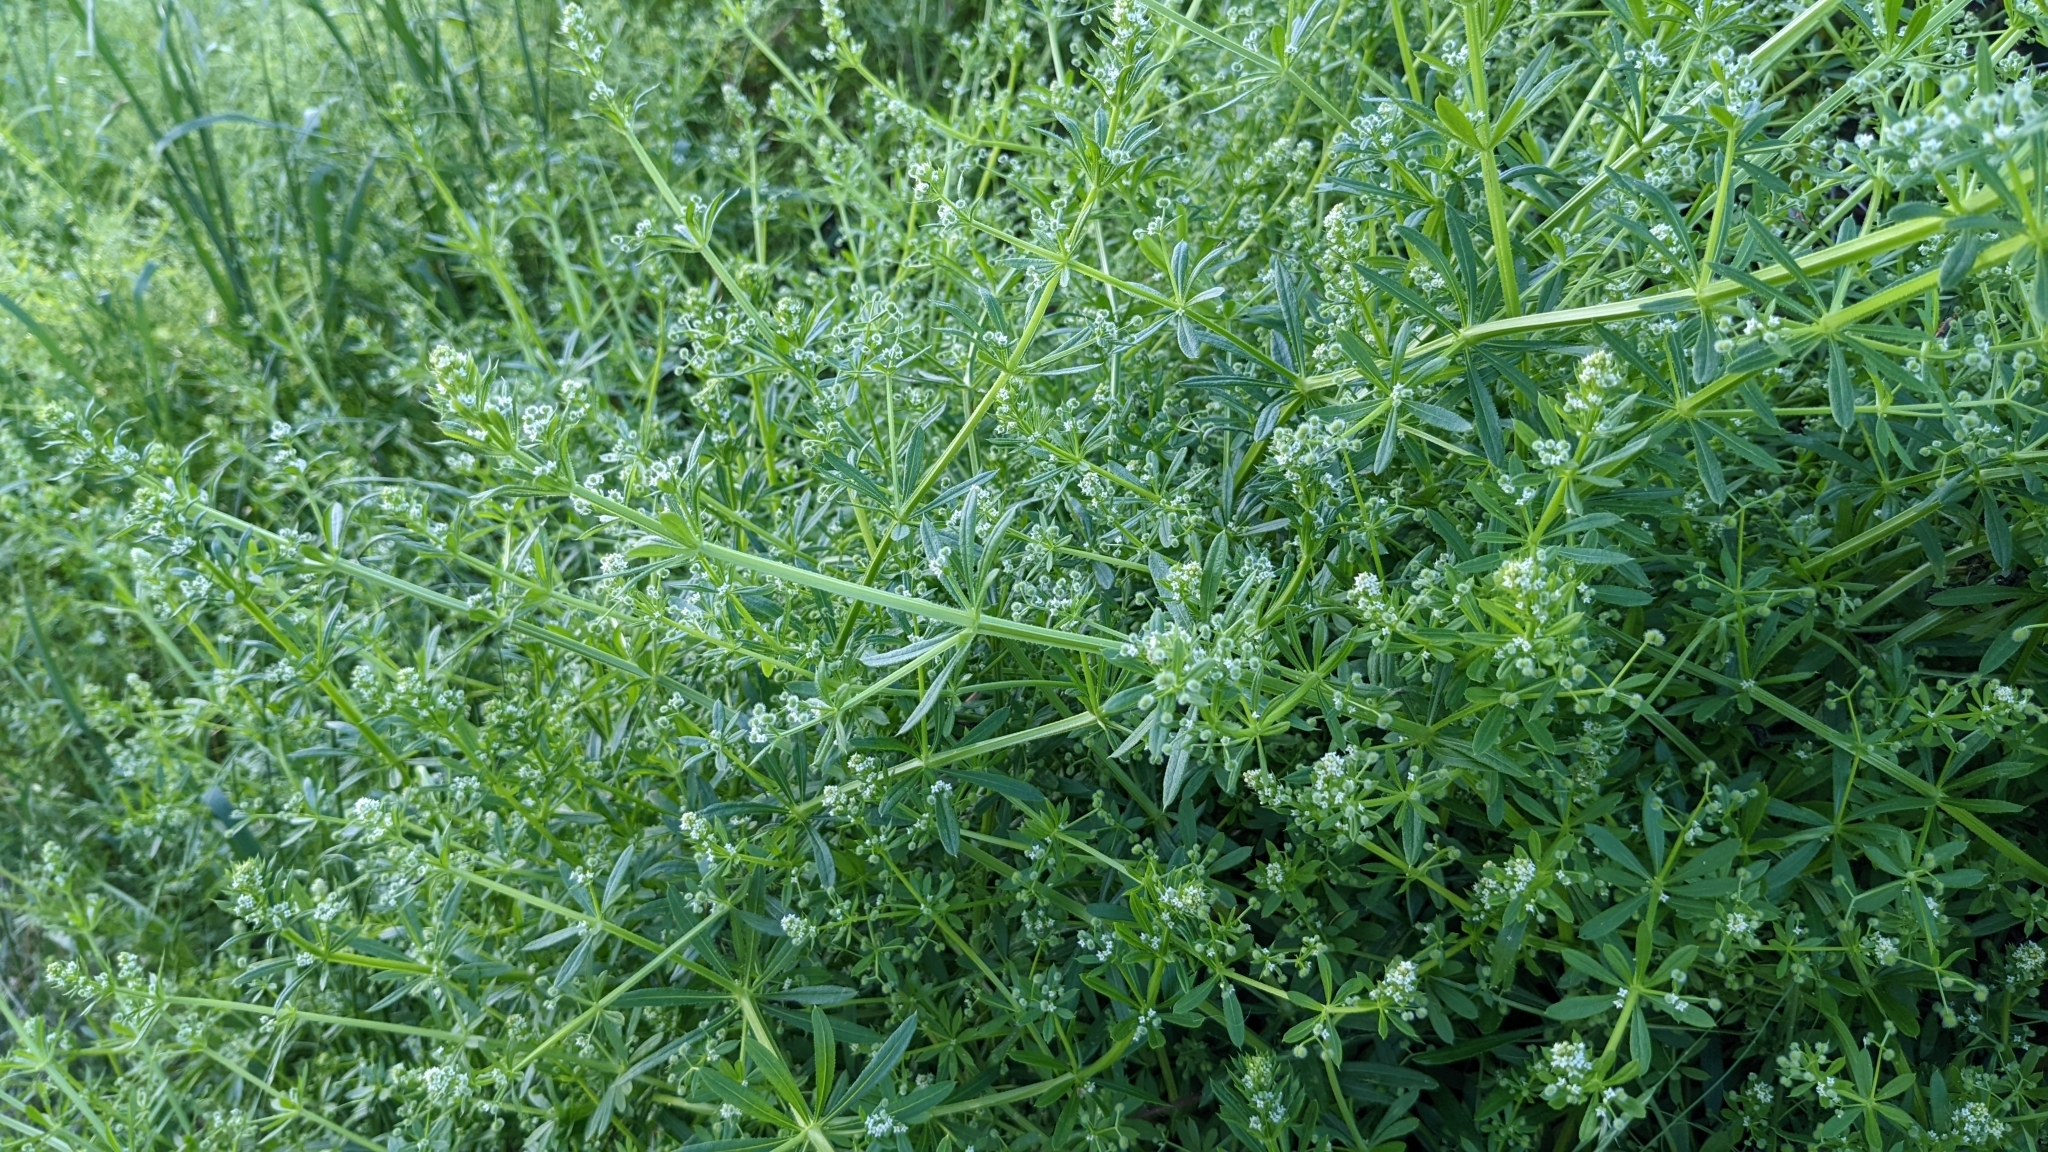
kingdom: Plantae
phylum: Tracheophyta
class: Magnoliopsida
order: Gentianales
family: Rubiaceae
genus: Galium
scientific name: Galium aparine
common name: Cleavers
